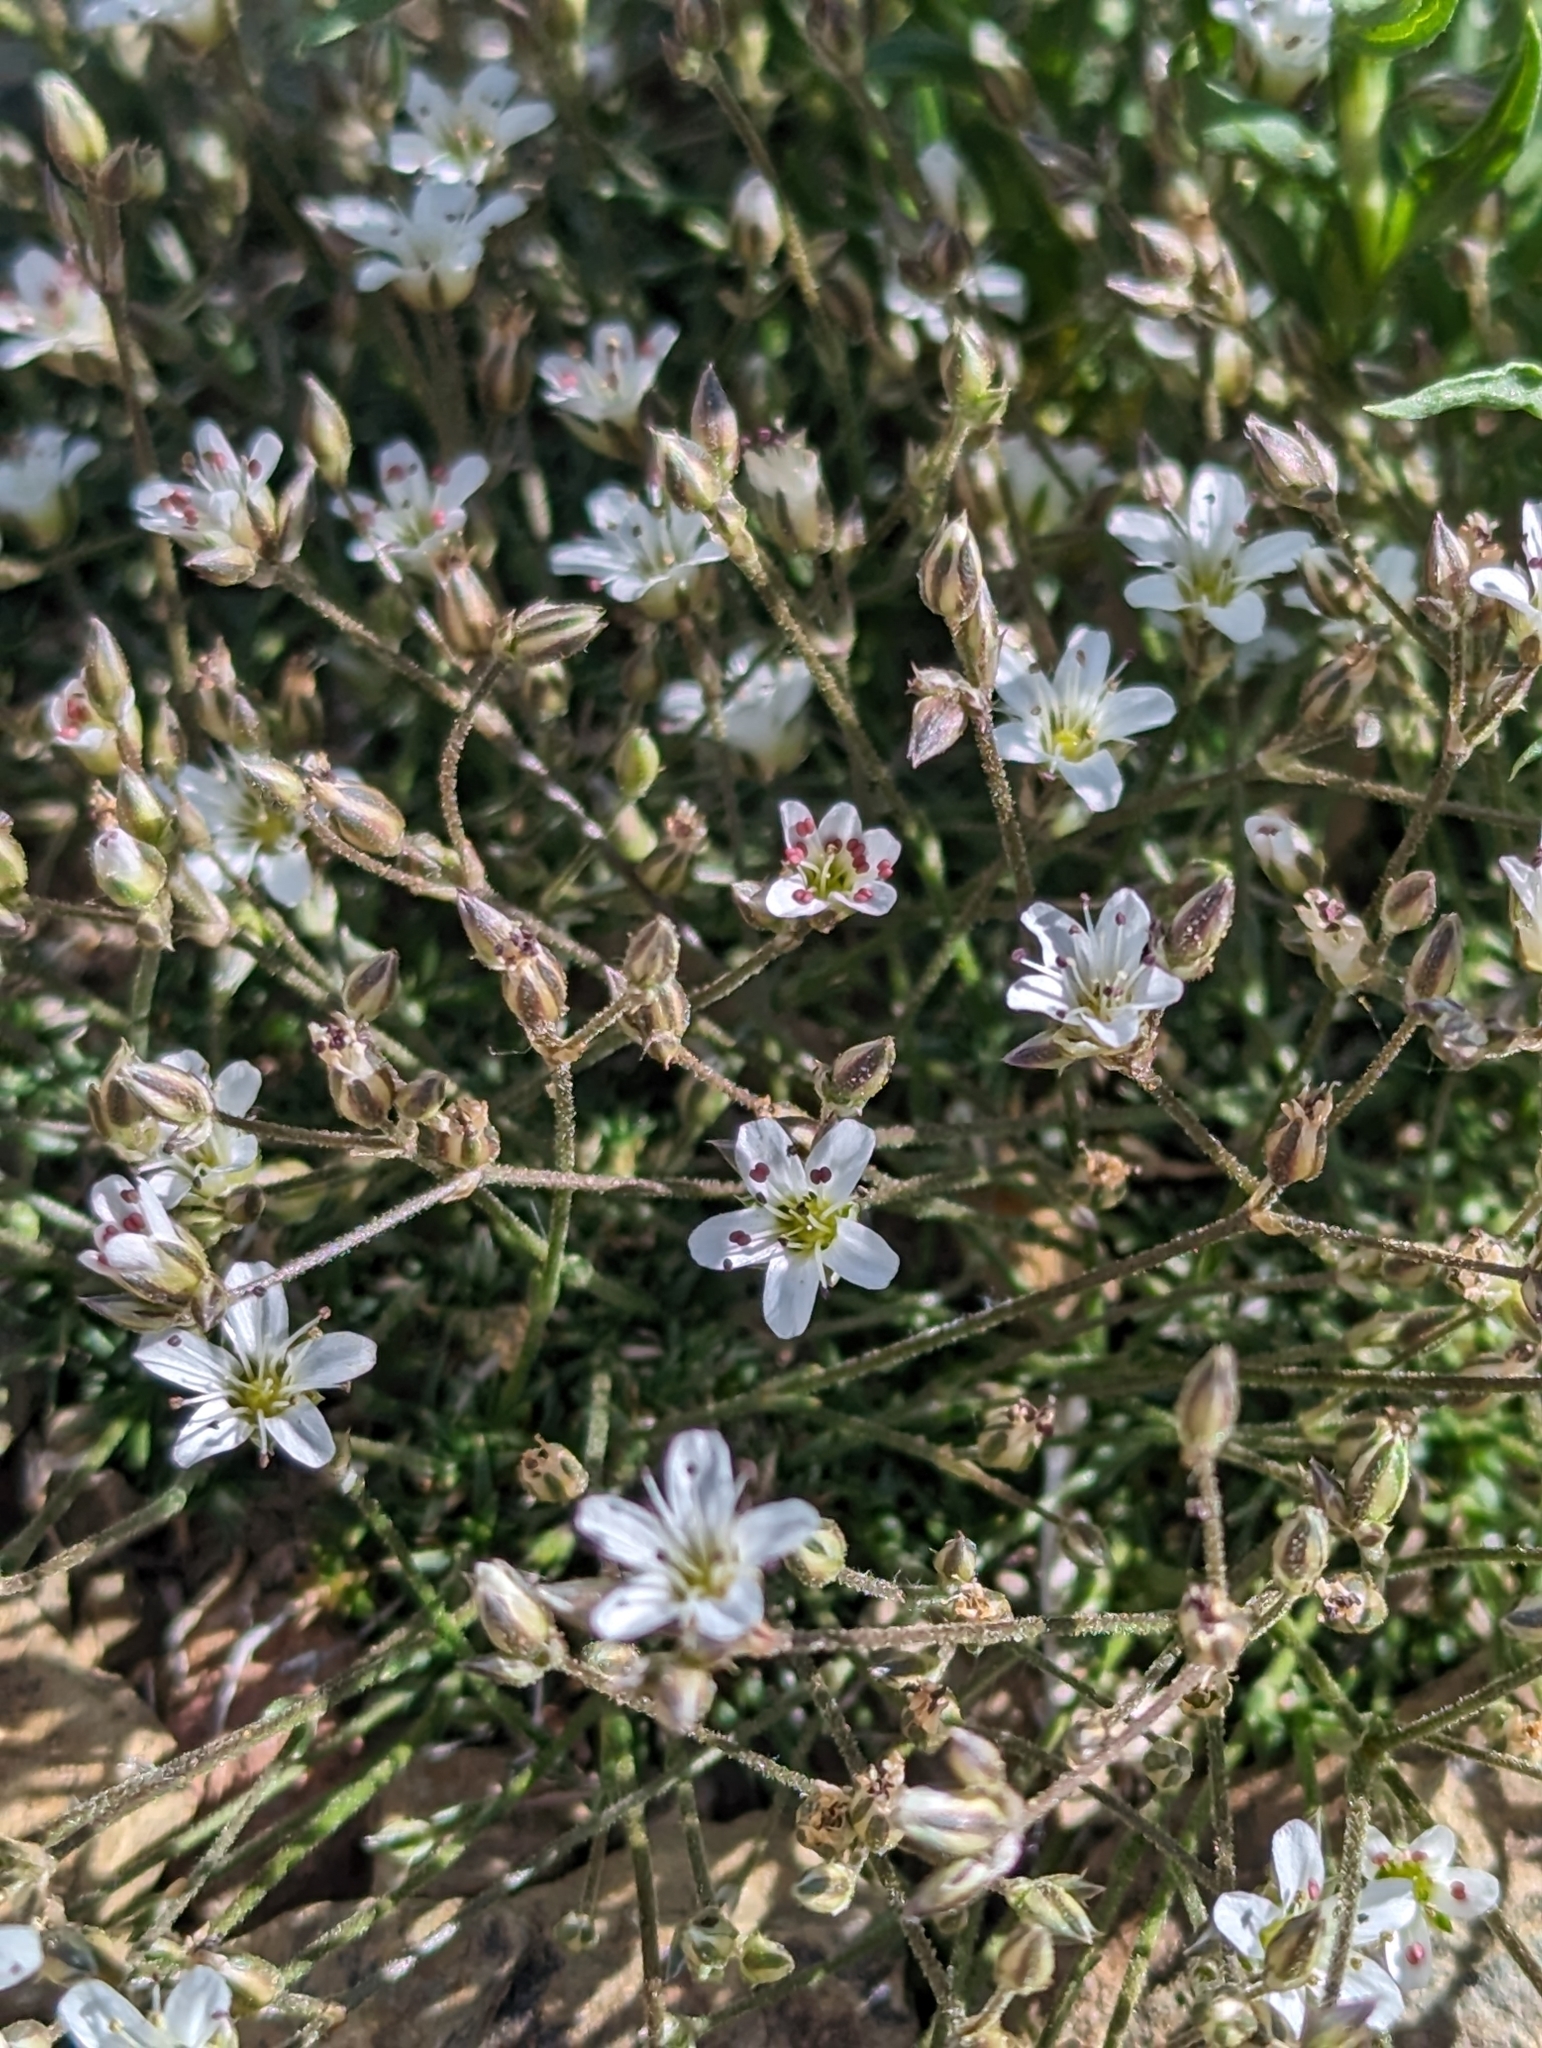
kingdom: Plantae
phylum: Tracheophyta
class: Magnoliopsida
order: Caryophyllales
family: Caryophyllaceae
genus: Eremogone
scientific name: Eremogone kingii
